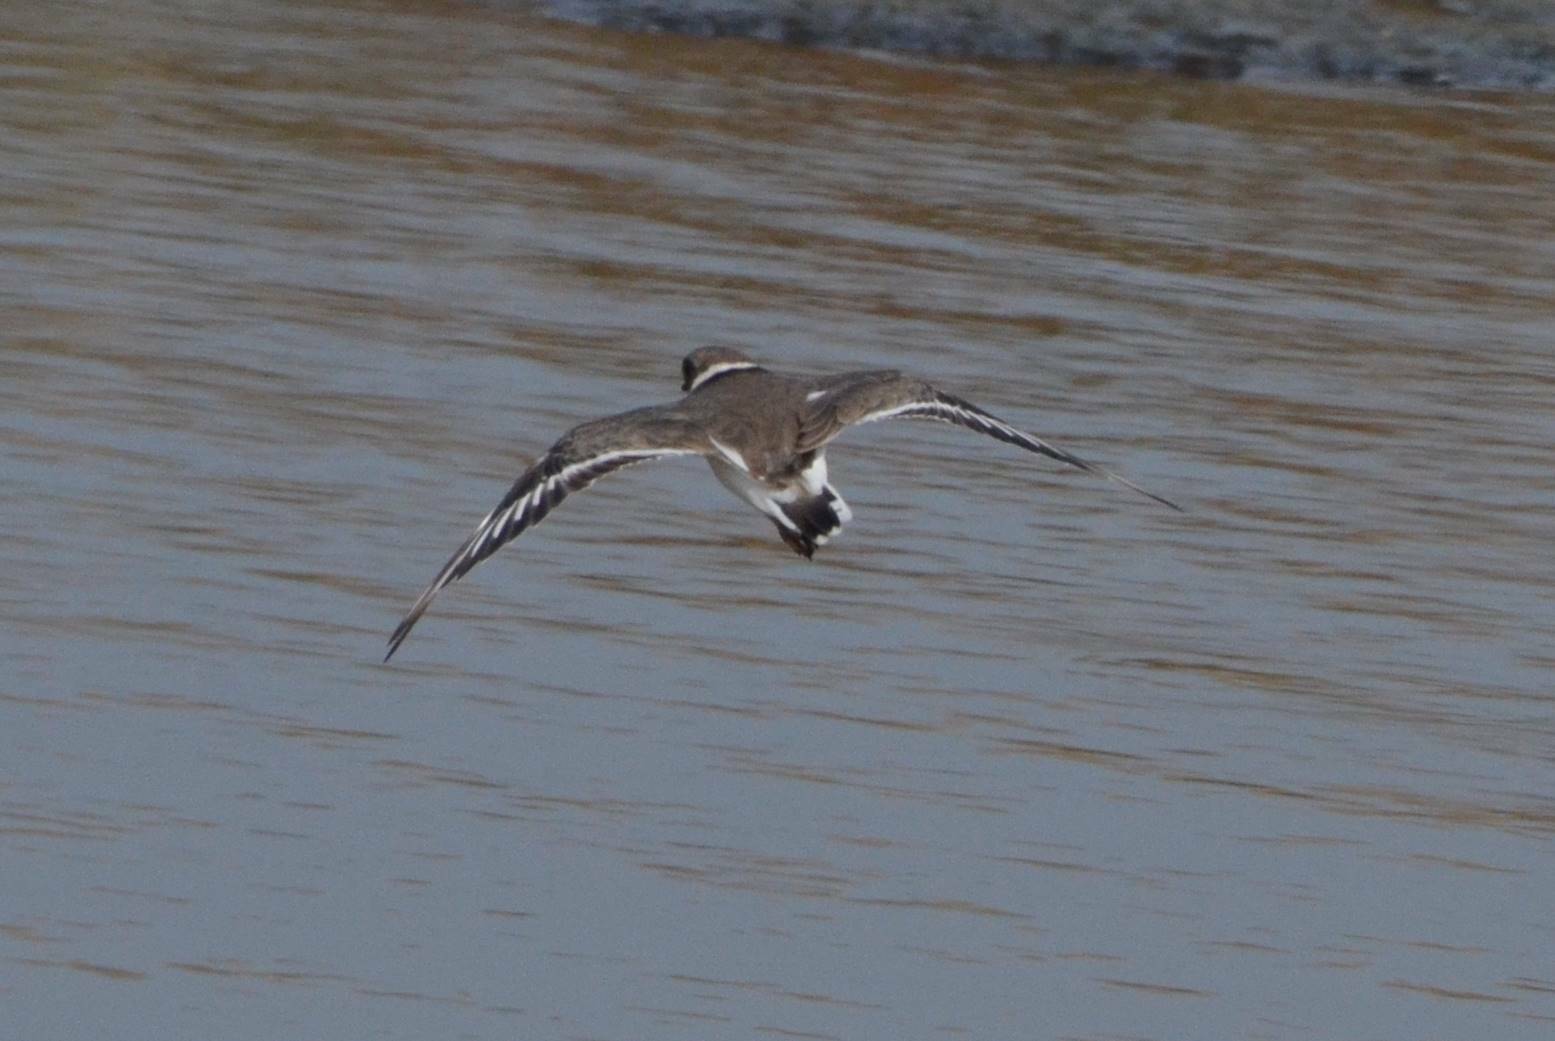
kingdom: Animalia
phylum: Chordata
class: Aves
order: Charadriiformes
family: Charadriidae
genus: Charadrius
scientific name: Charadrius hiaticula
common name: Common ringed plover
